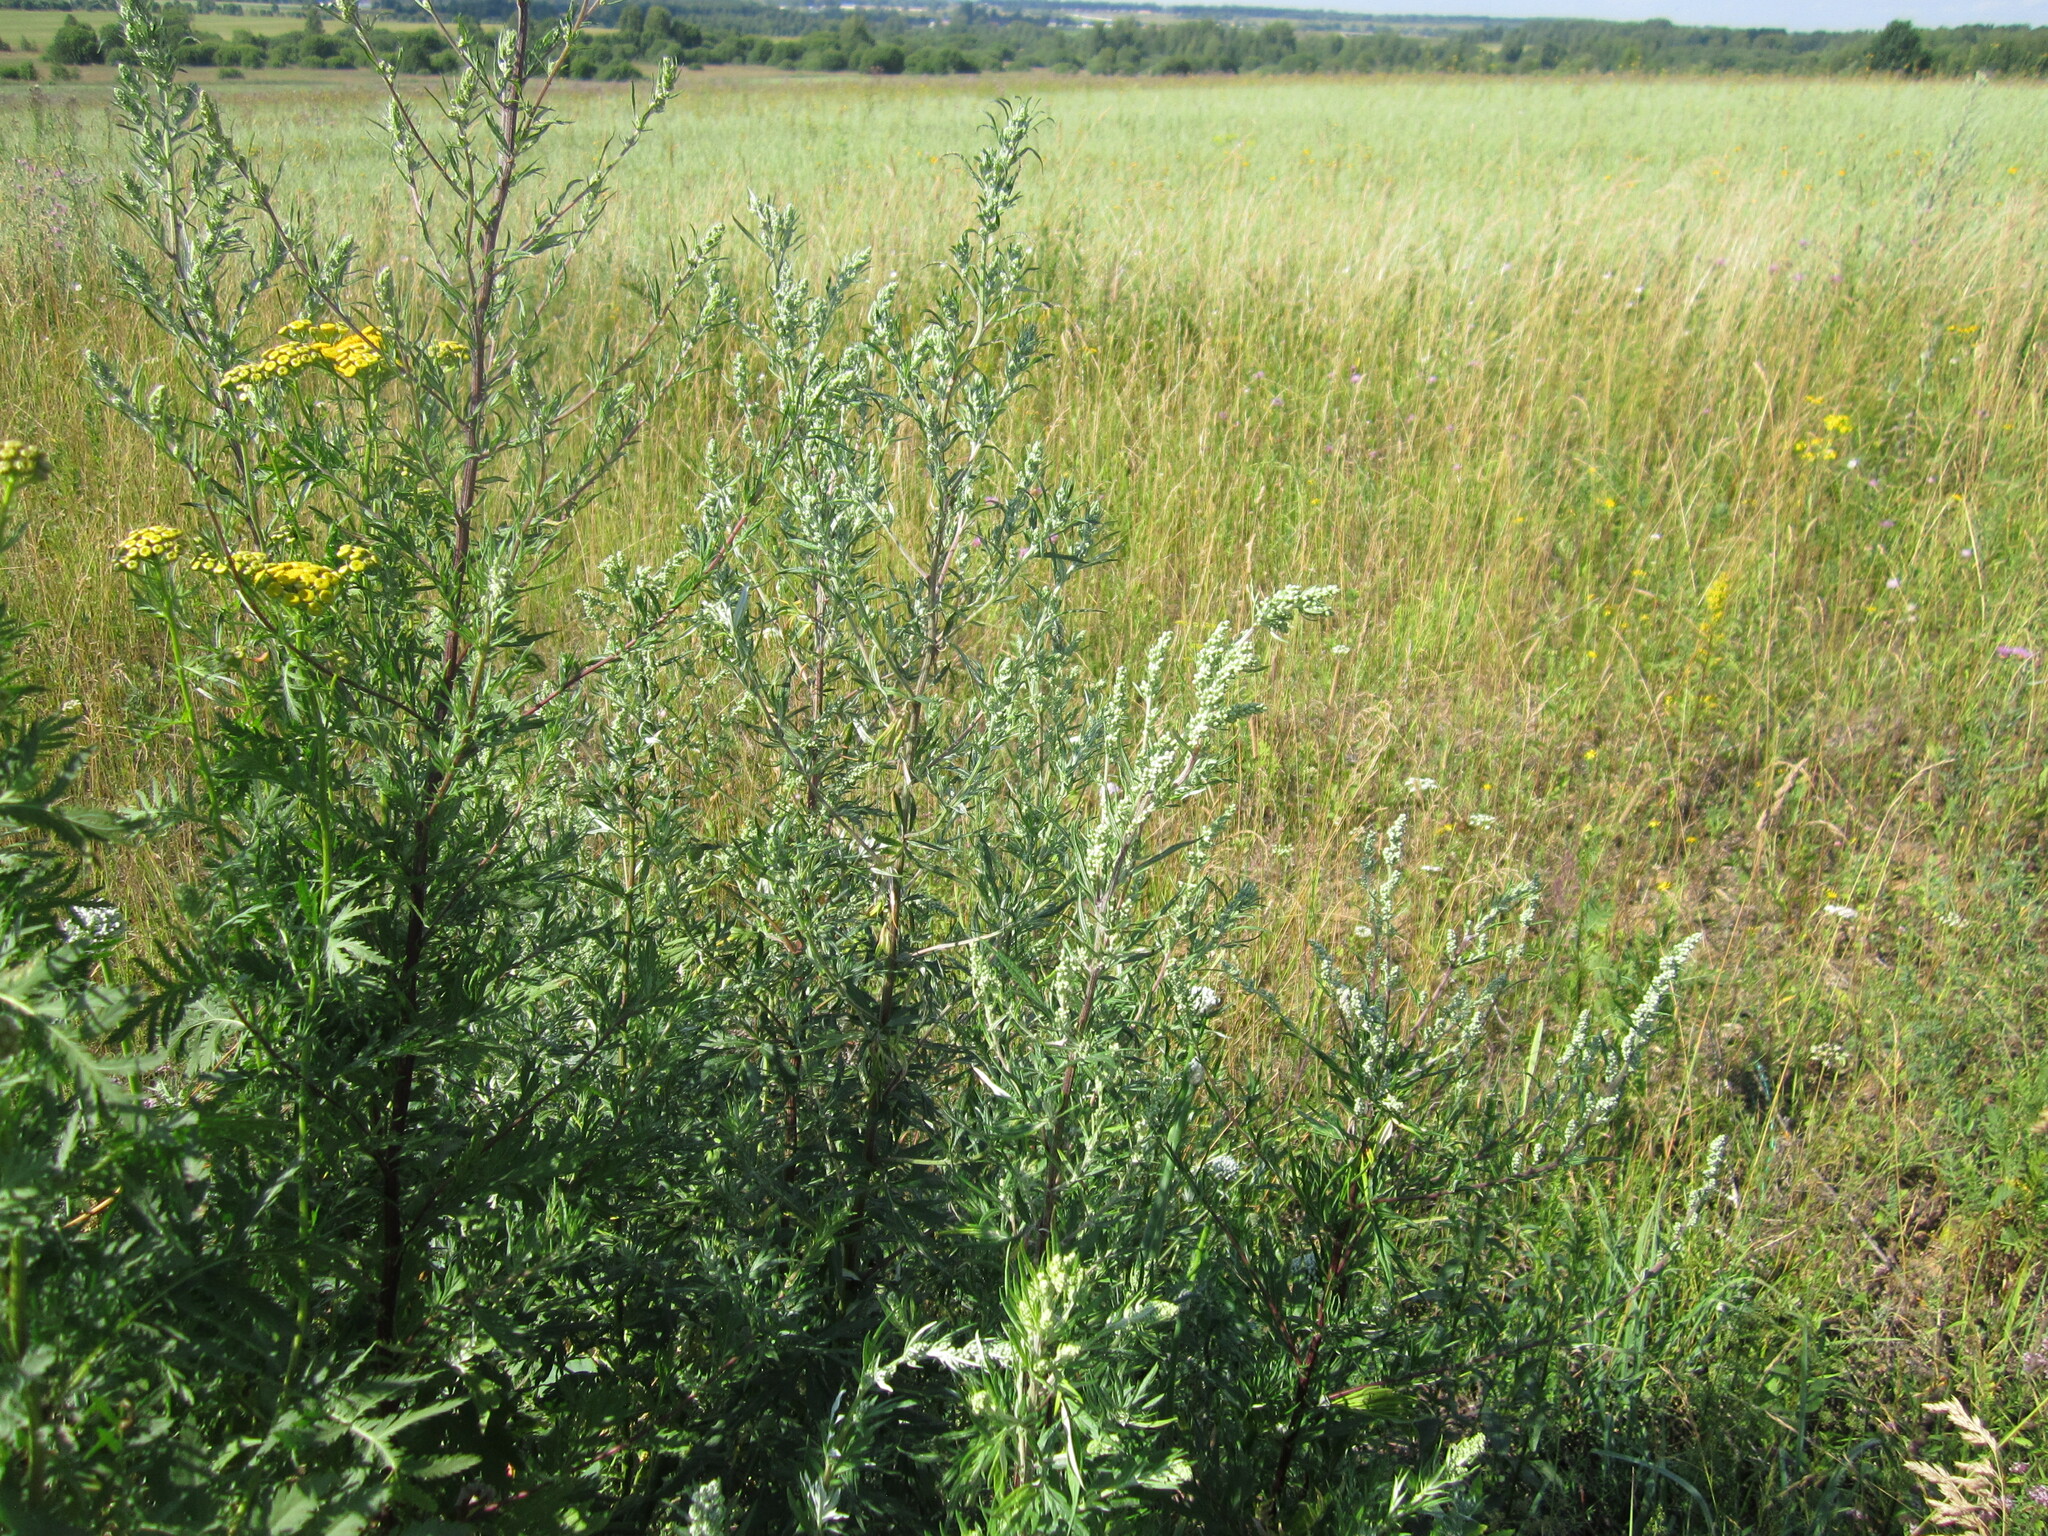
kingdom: Plantae
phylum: Tracheophyta
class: Magnoliopsida
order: Asterales
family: Asteraceae
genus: Artemisia
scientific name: Artemisia vulgaris
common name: Mugwort
